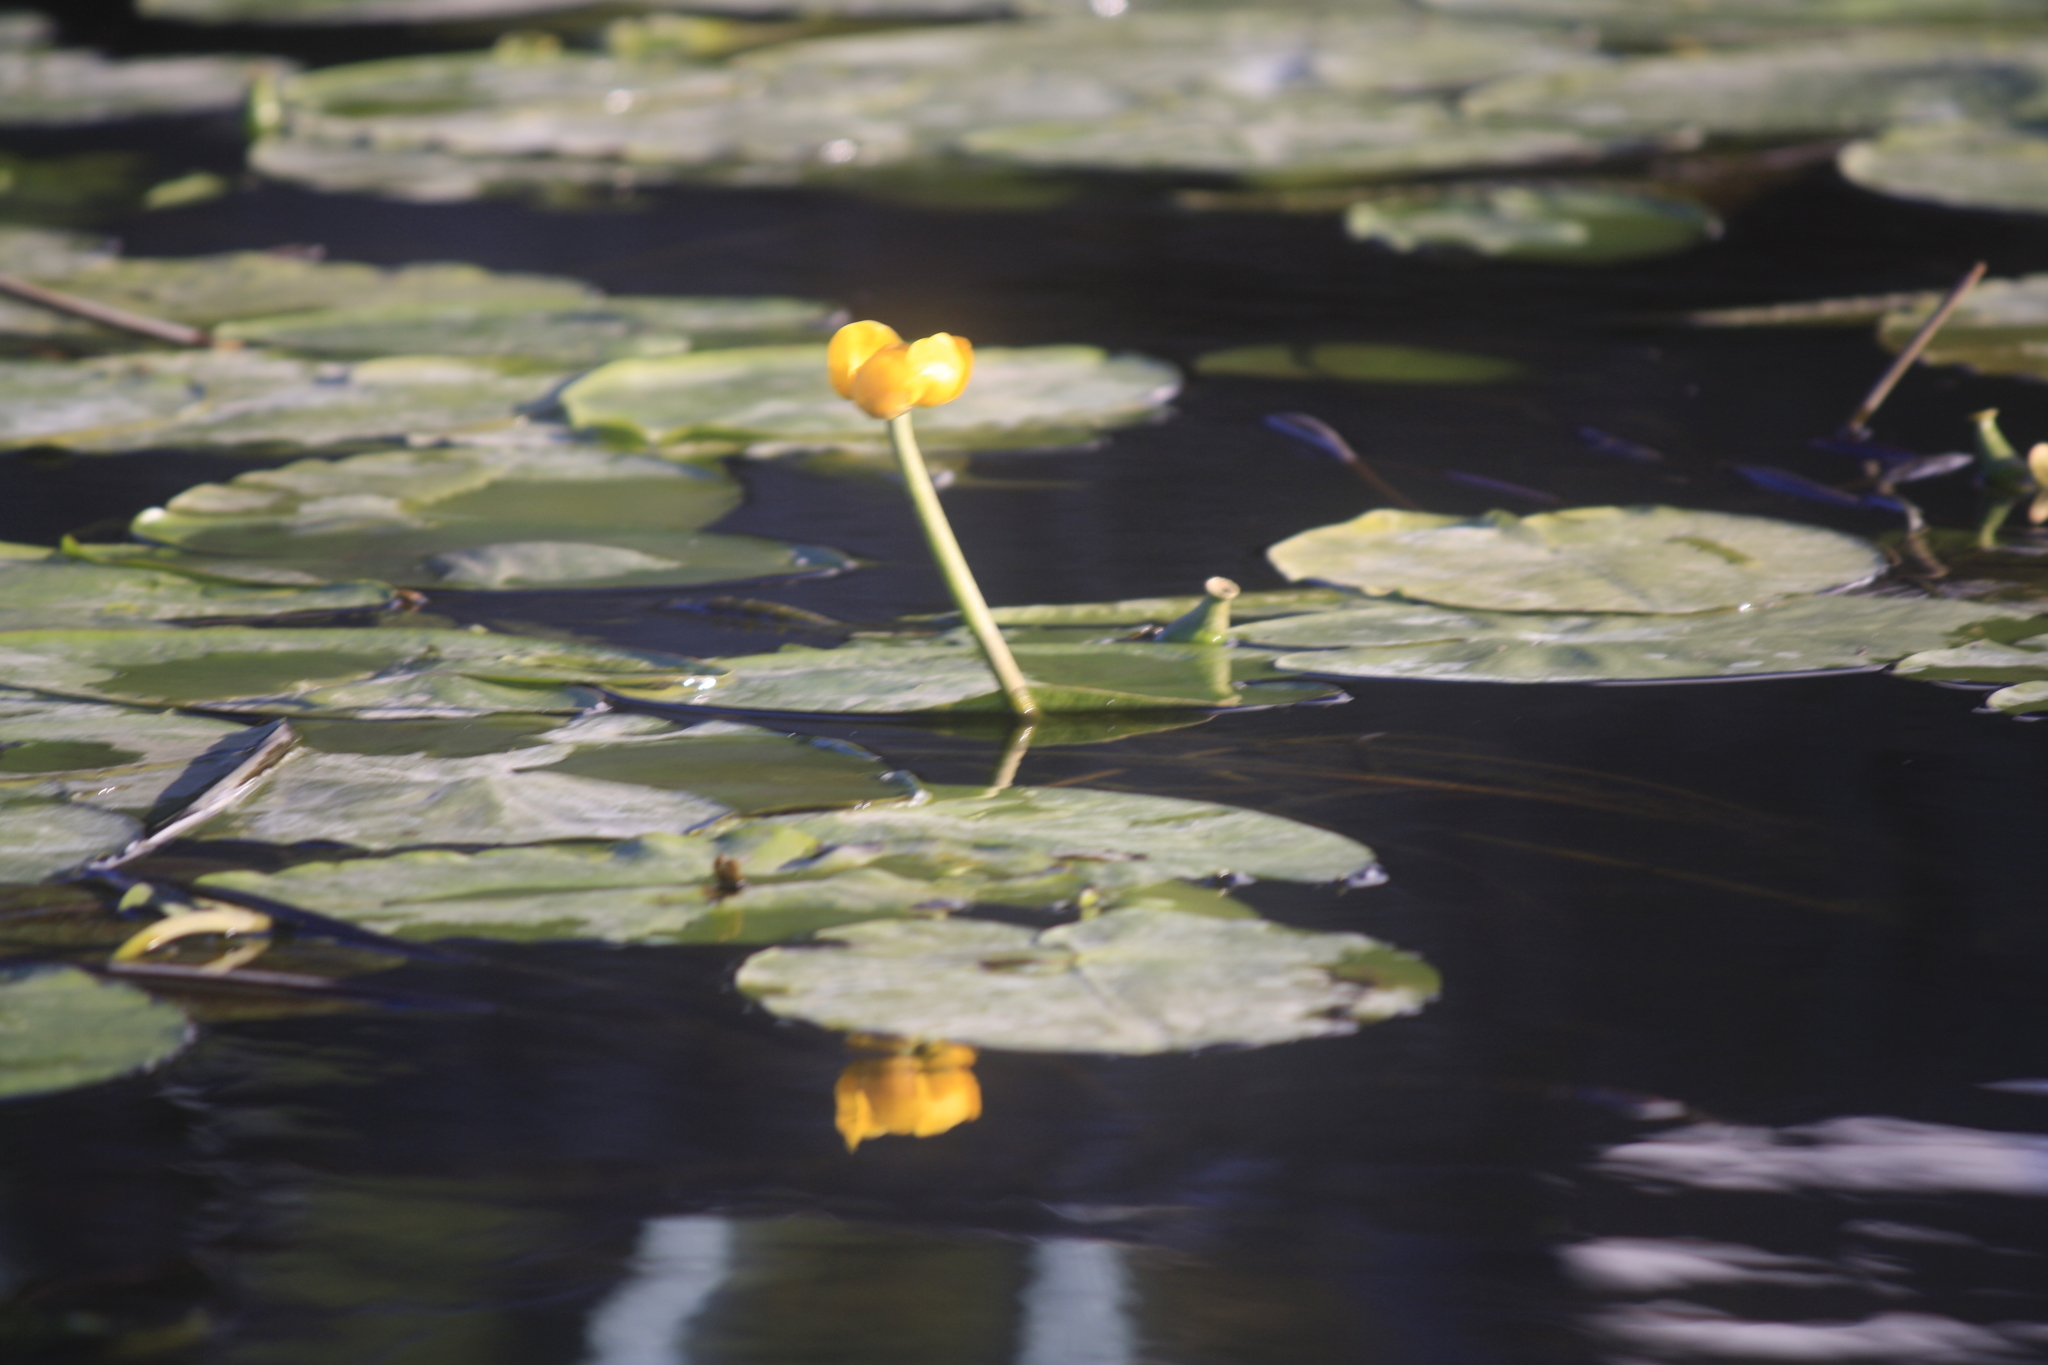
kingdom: Plantae
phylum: Tracheophyta
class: Magnoliopsida
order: Nymphaeales
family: Nymphaeaceae
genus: Nuphar
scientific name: Nuphar lutea
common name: Yellow water-lily
